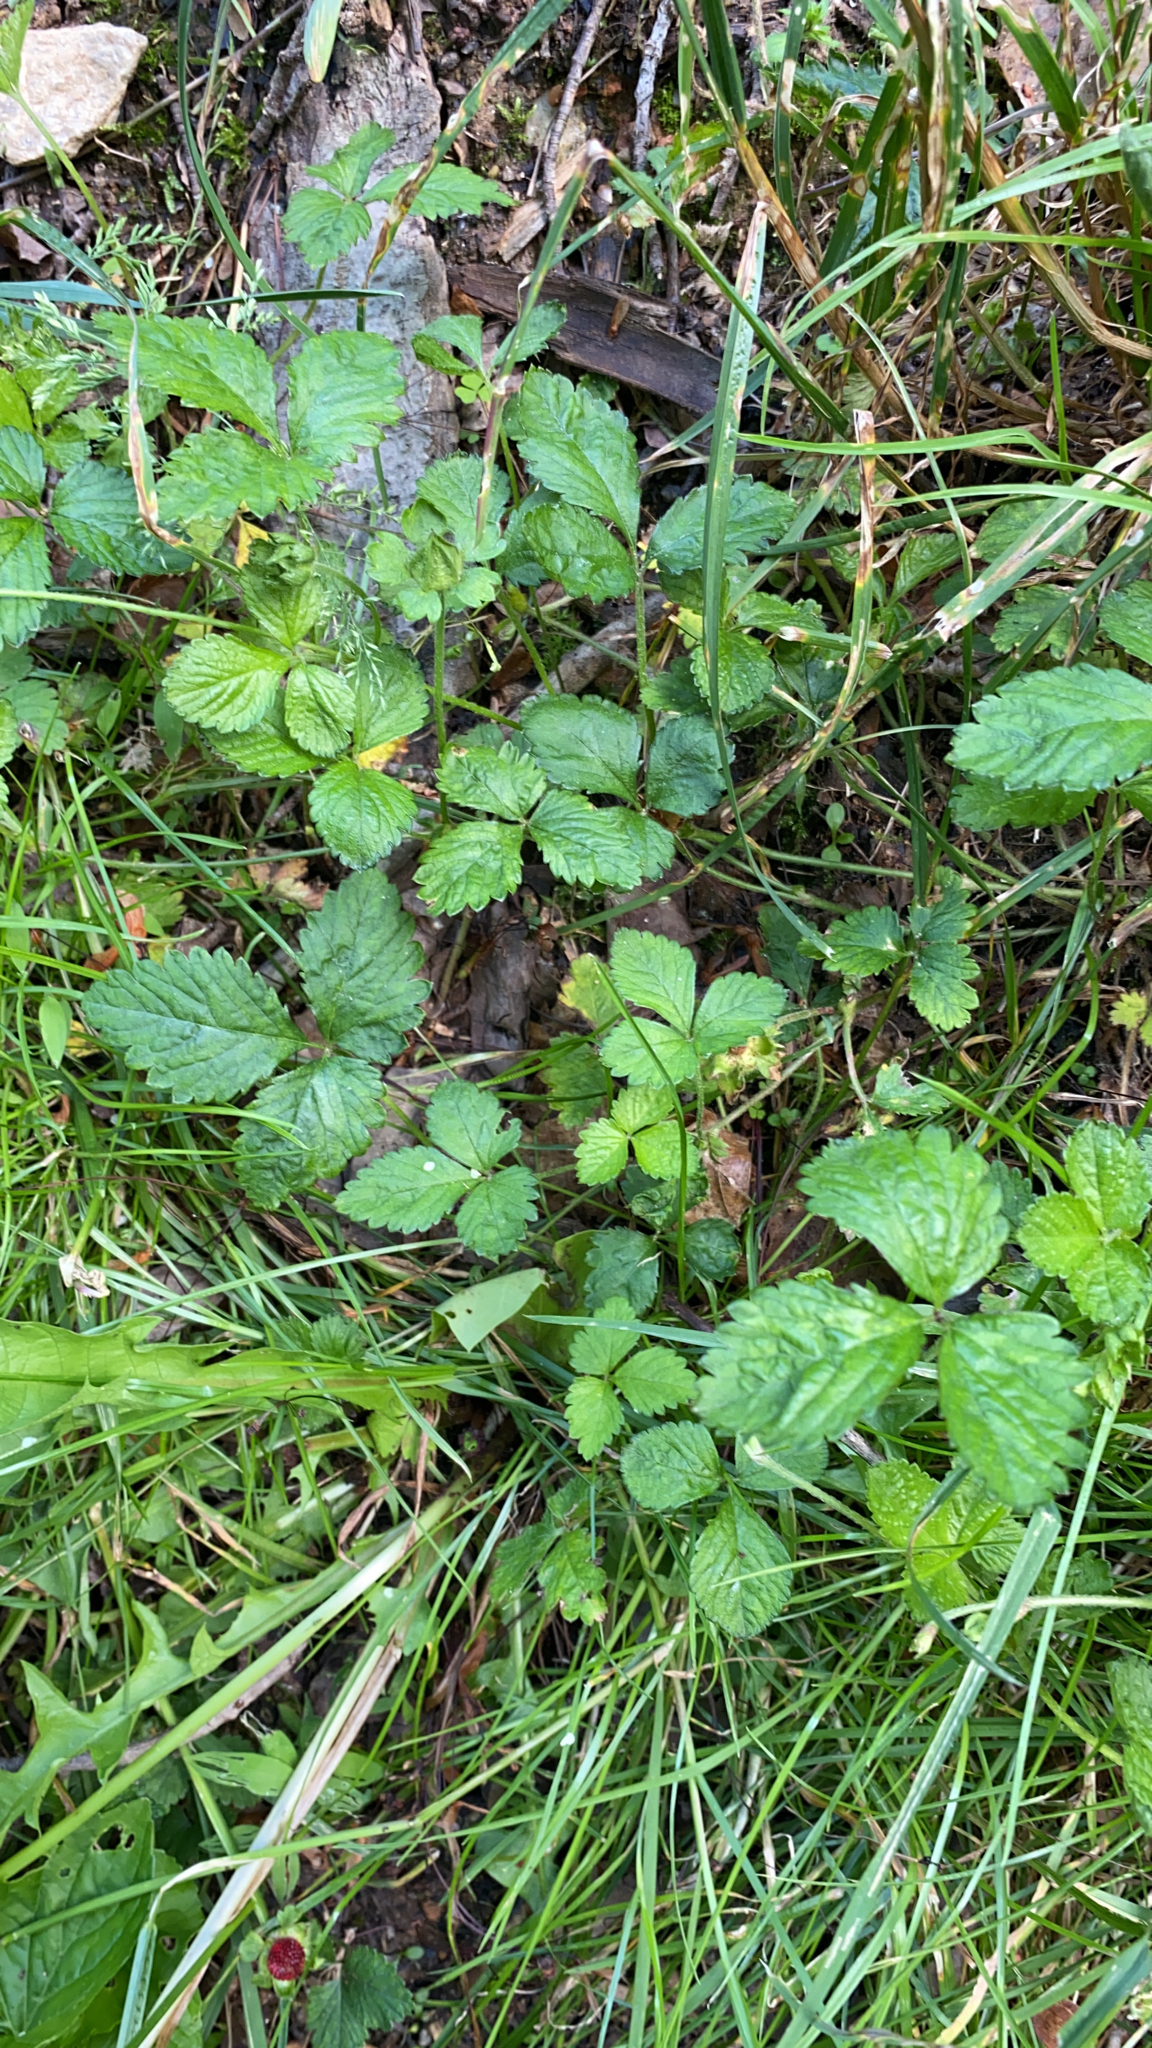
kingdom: Plantae
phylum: Tracheophyta
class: Magnoliopsida
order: Rosales
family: Rosaceae
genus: Potentilla
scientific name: Potentilla indica
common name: Yellow-flowered strawberry
